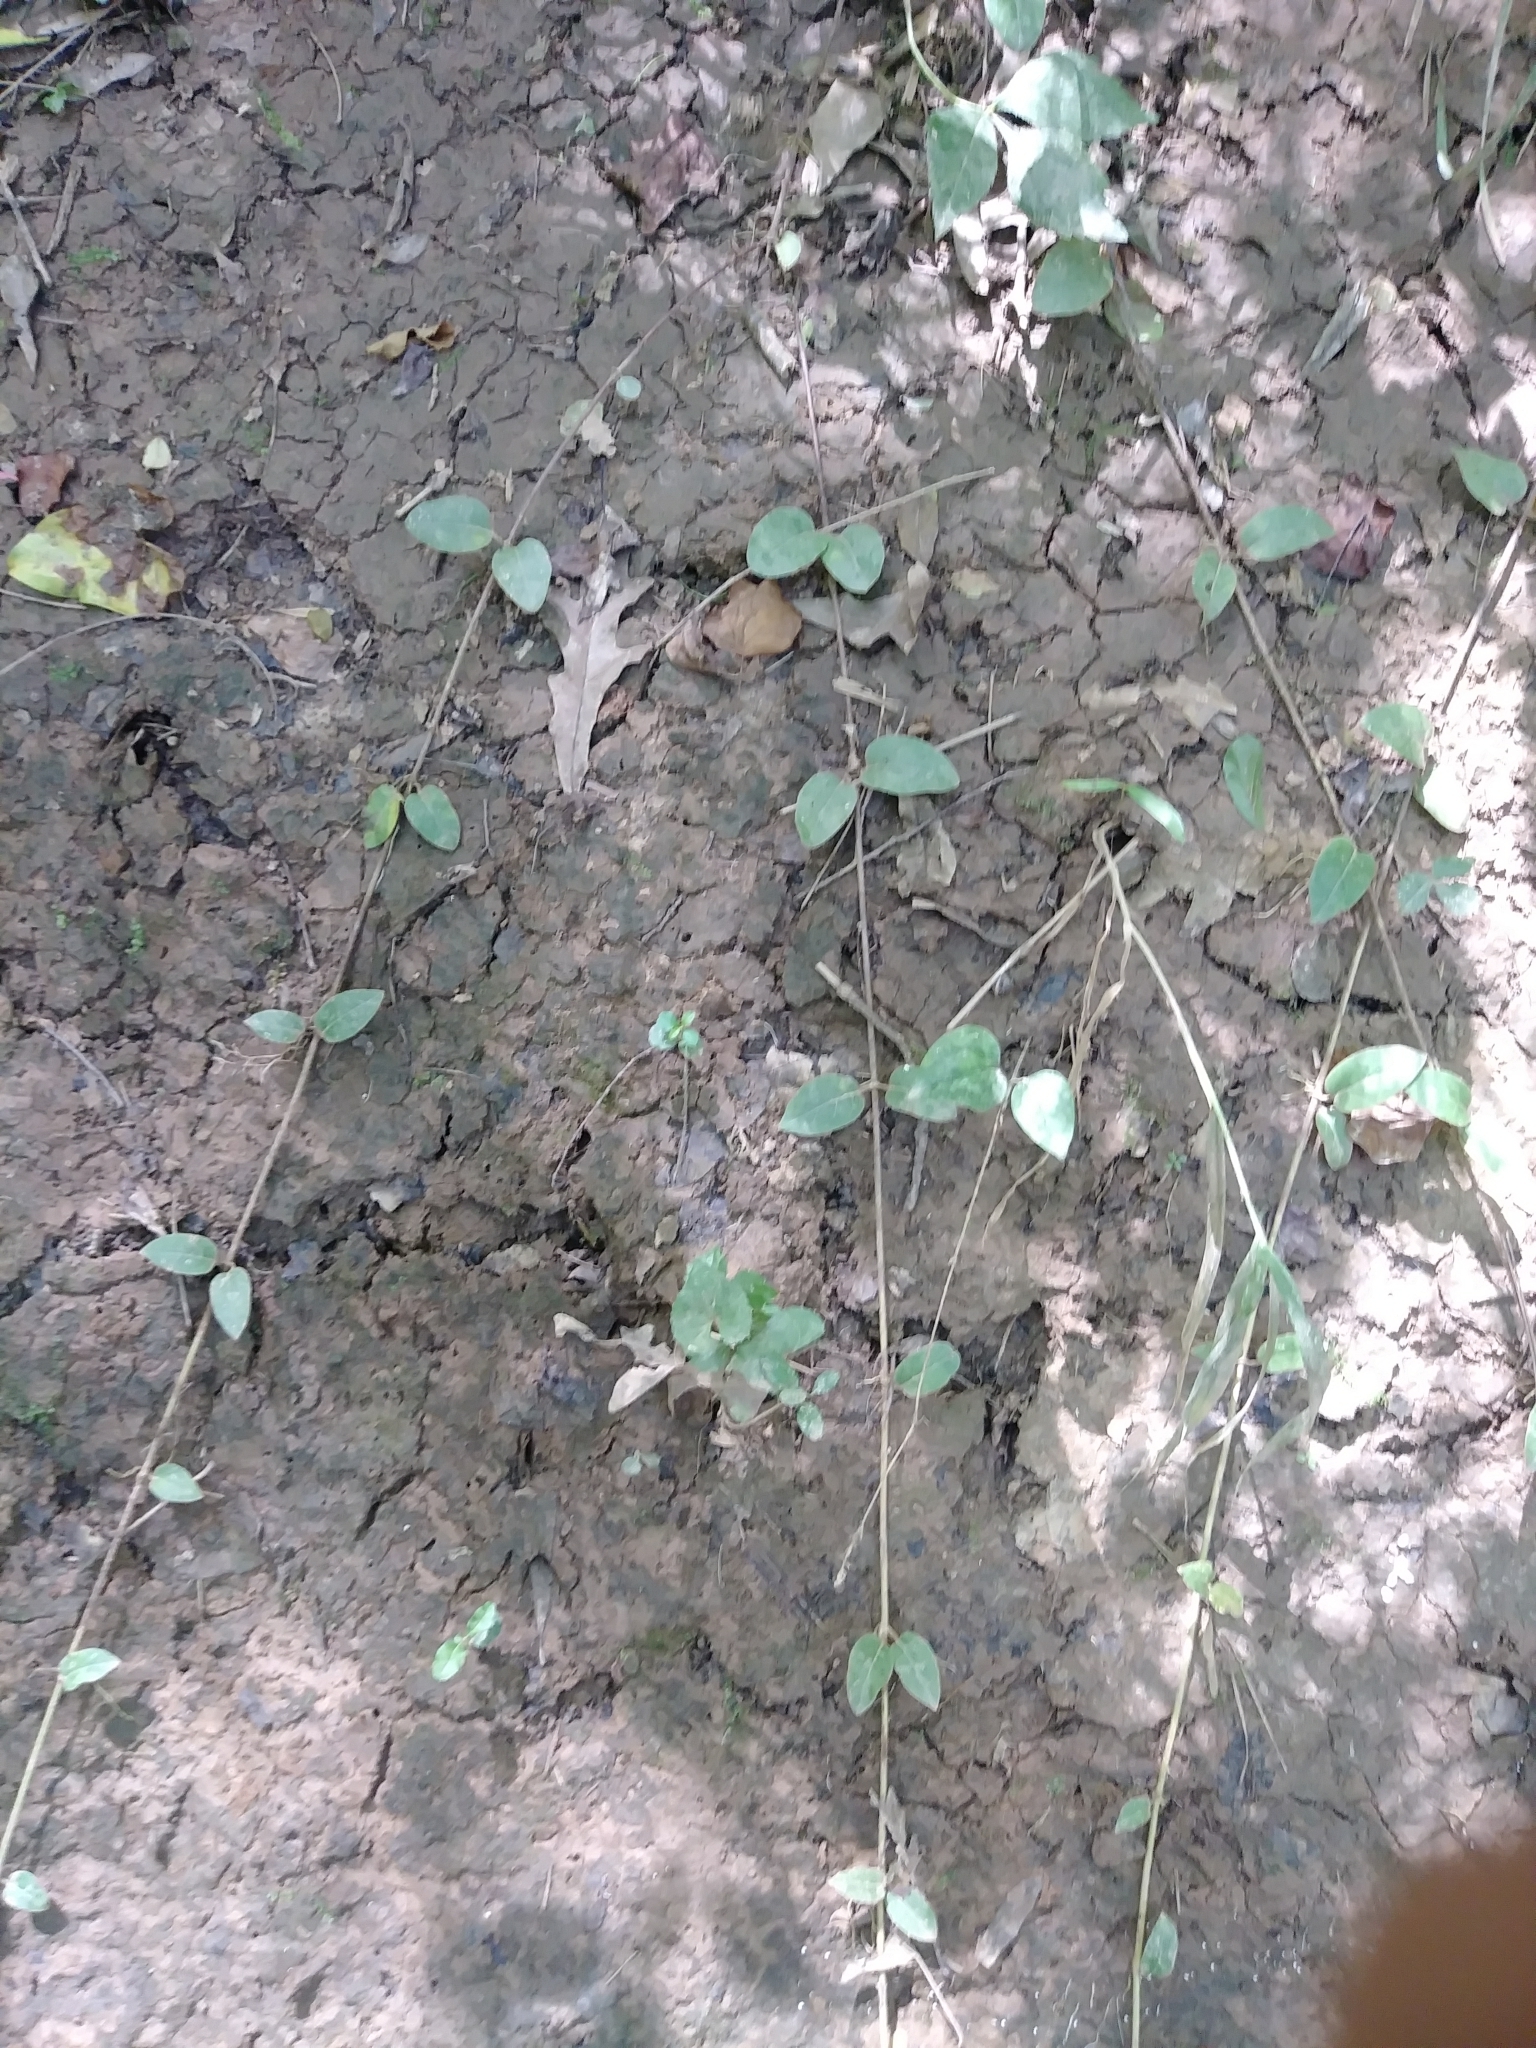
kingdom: Plantae
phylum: Tracheophyta
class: Magnoliopsida
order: Dipsacales
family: Caprifoliaceae
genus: Lonicera
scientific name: Lonicera japonica
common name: Japanese honeysuckle
